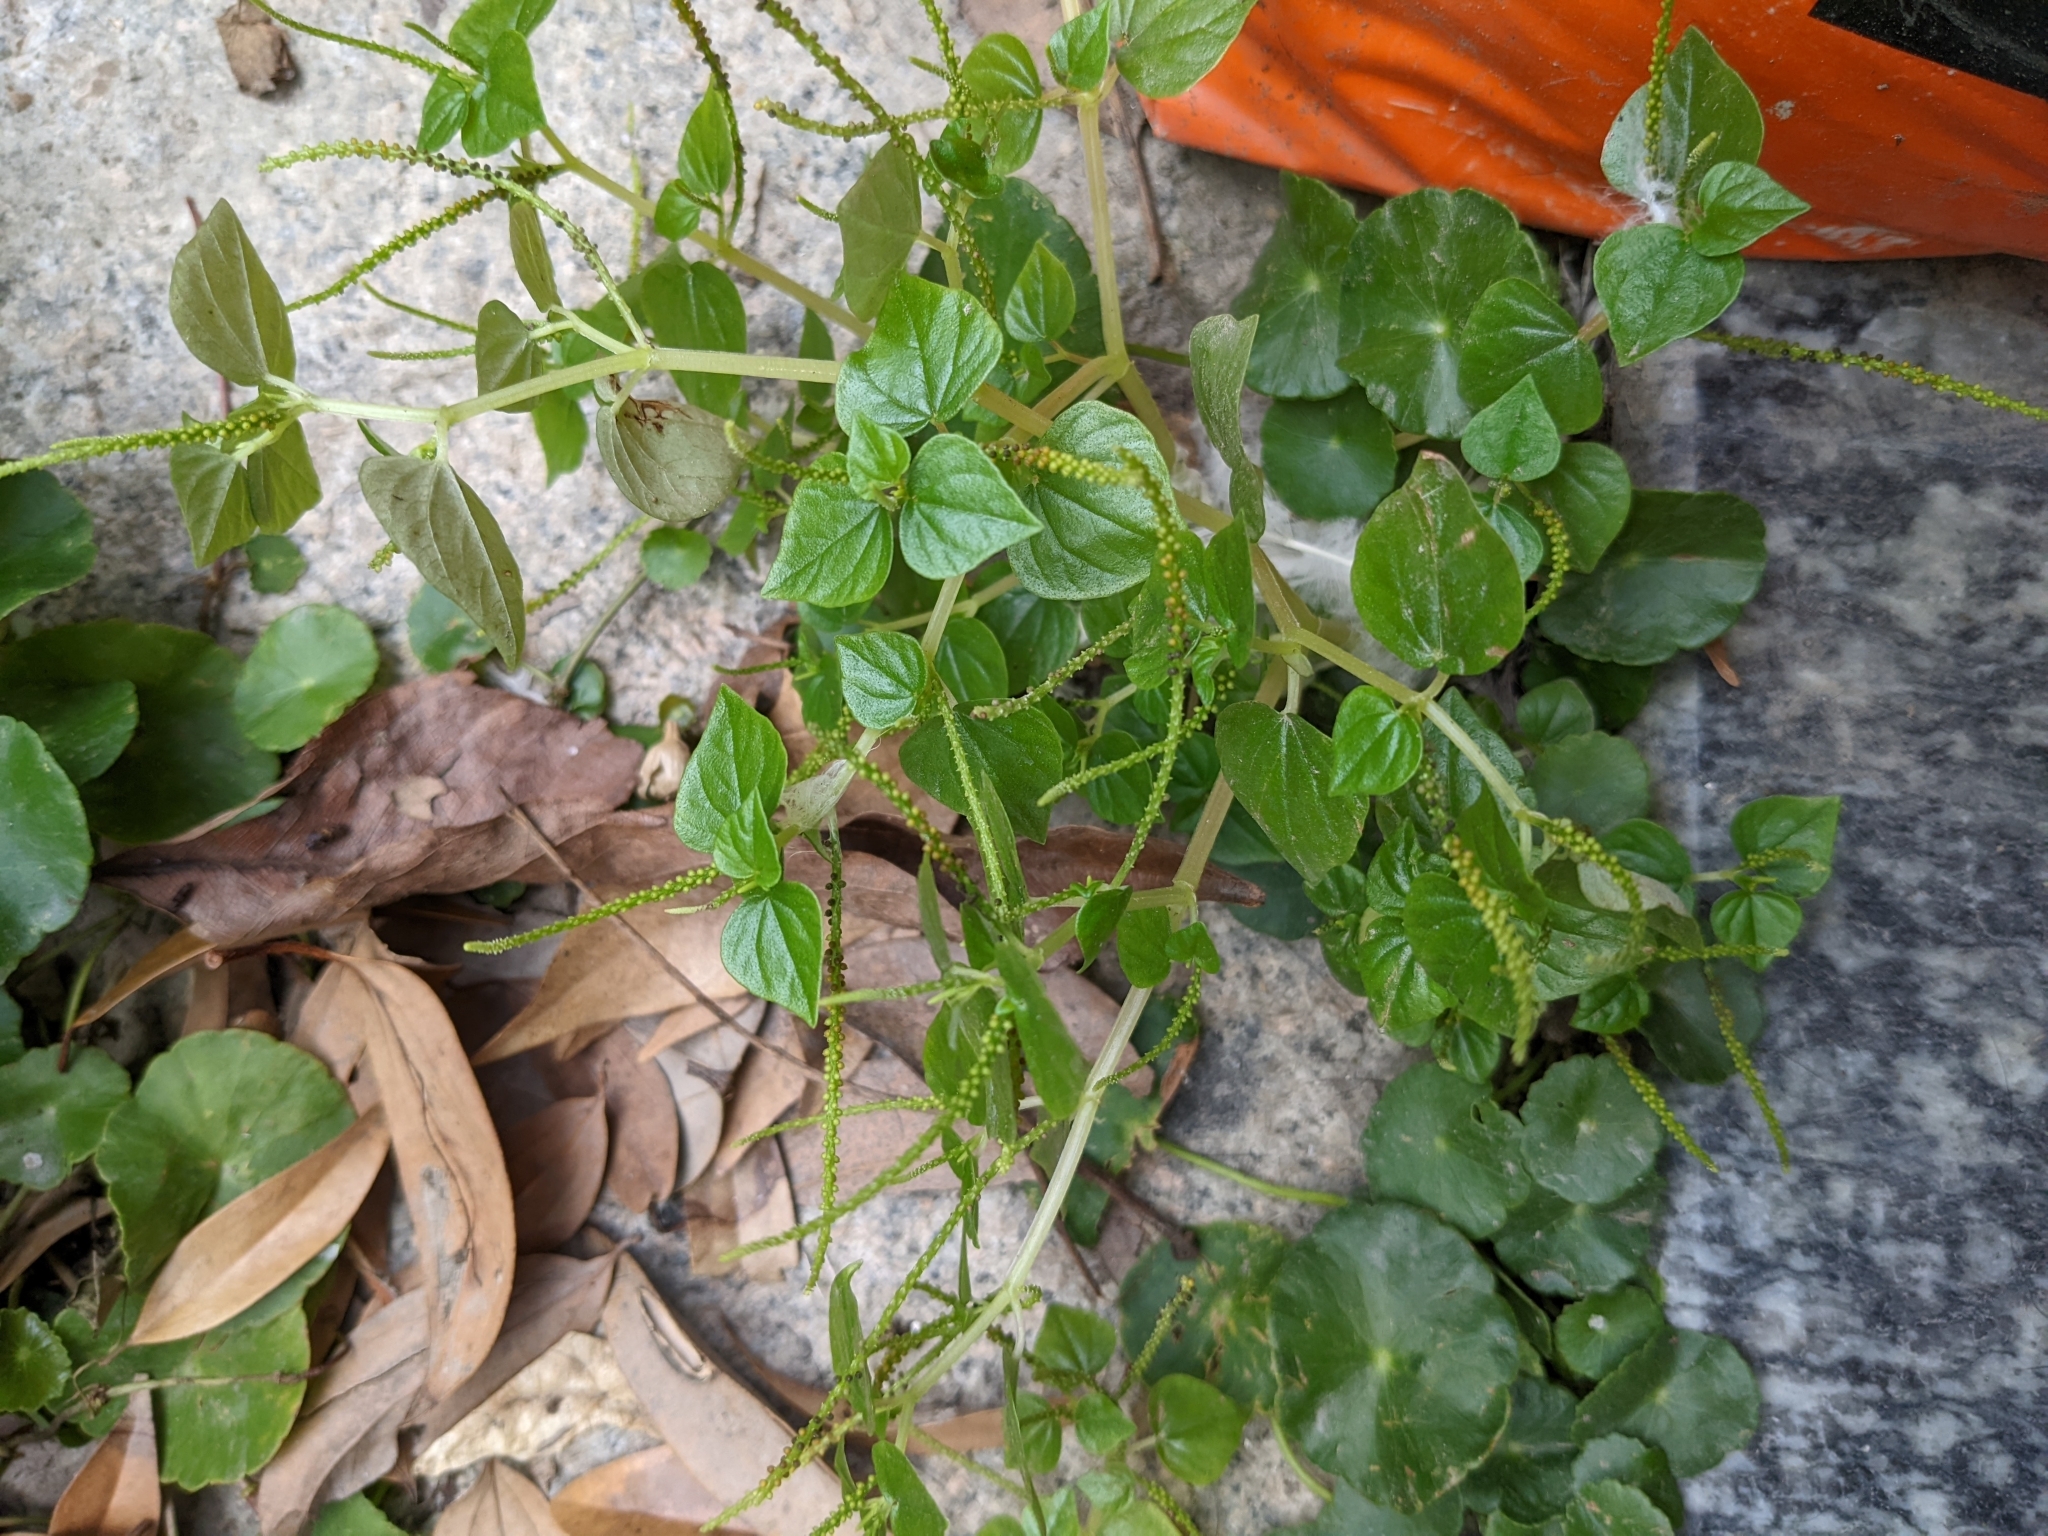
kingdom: Plantae
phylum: Tracheophyta
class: Magnoliopsida
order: Piperales
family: Piperaceae
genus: Peperomia
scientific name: Peperomia pellucida
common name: Man to man
